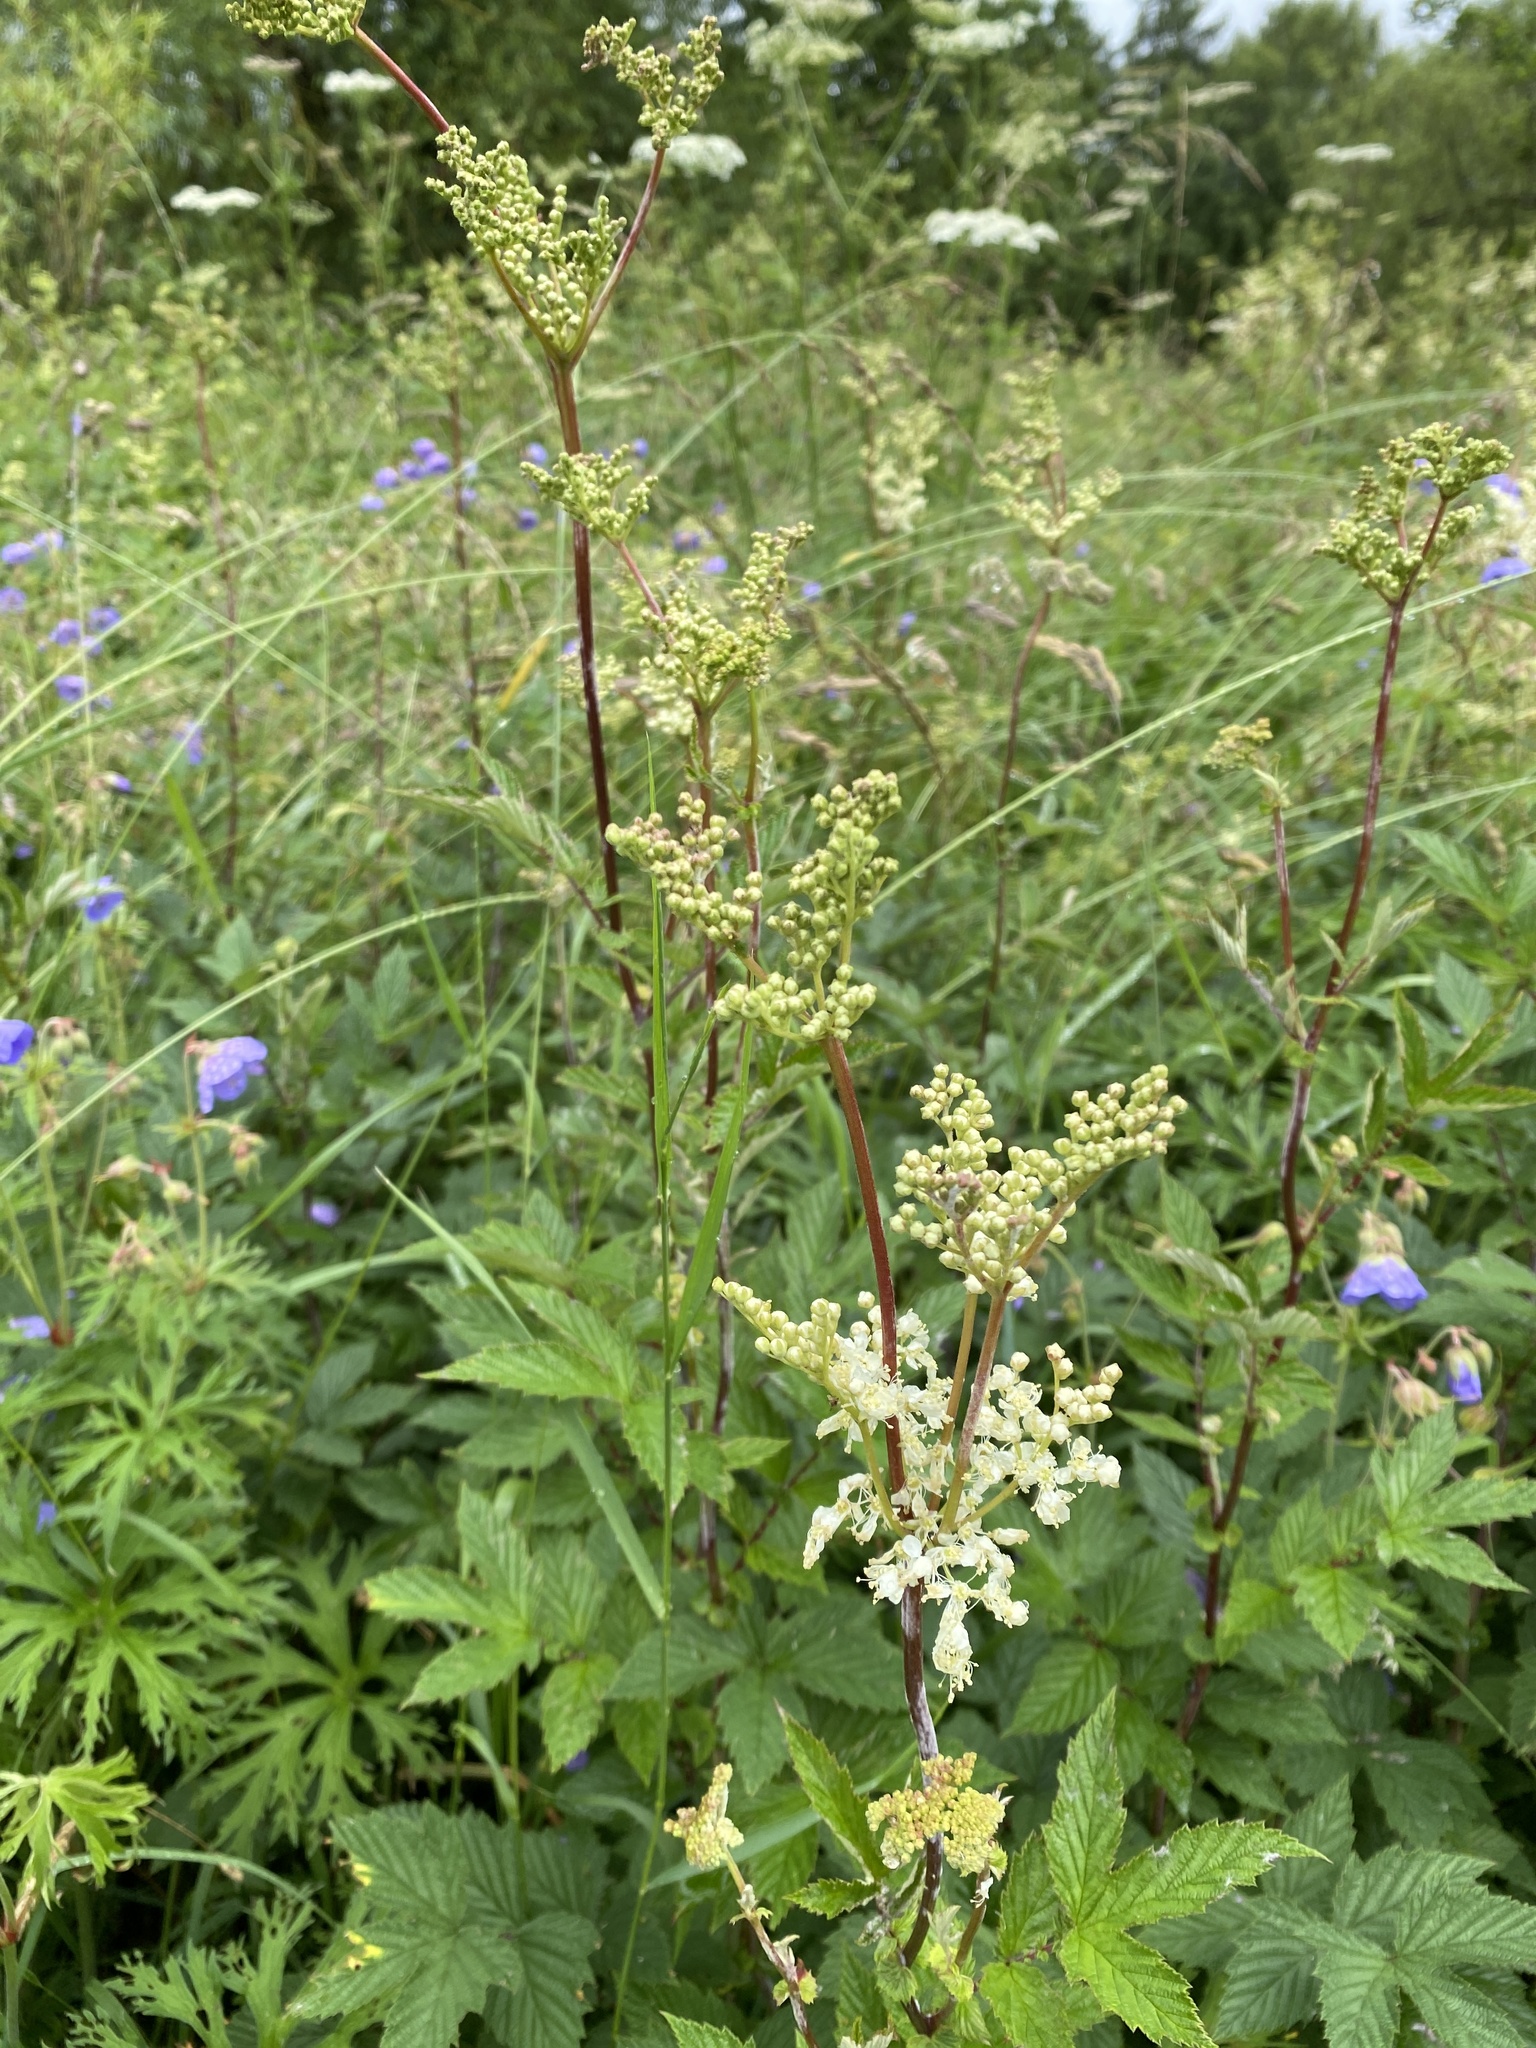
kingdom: Plantae
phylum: Tracheophyta
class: Magnoliopsida
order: Rosales
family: Rosaceae
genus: Filipendula
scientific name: Filipendula ulmaria
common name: Meadowsweet
